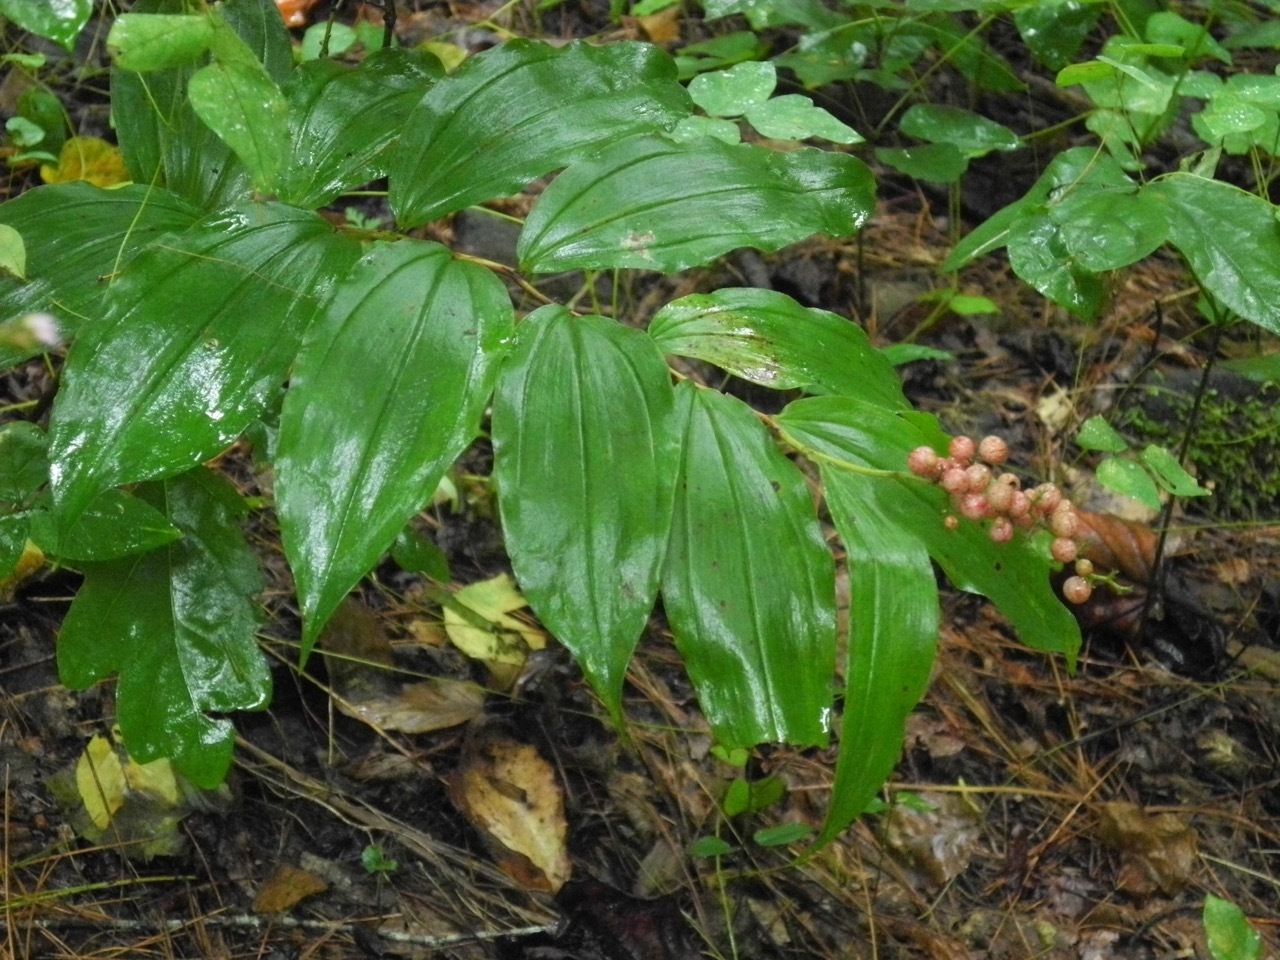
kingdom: Plantae
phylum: Tracheophyta
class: Liliopsida
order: Asparagales
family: Asparagaceae
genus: Maianthemum
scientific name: Maianthemum racemosum
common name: False spikenard
